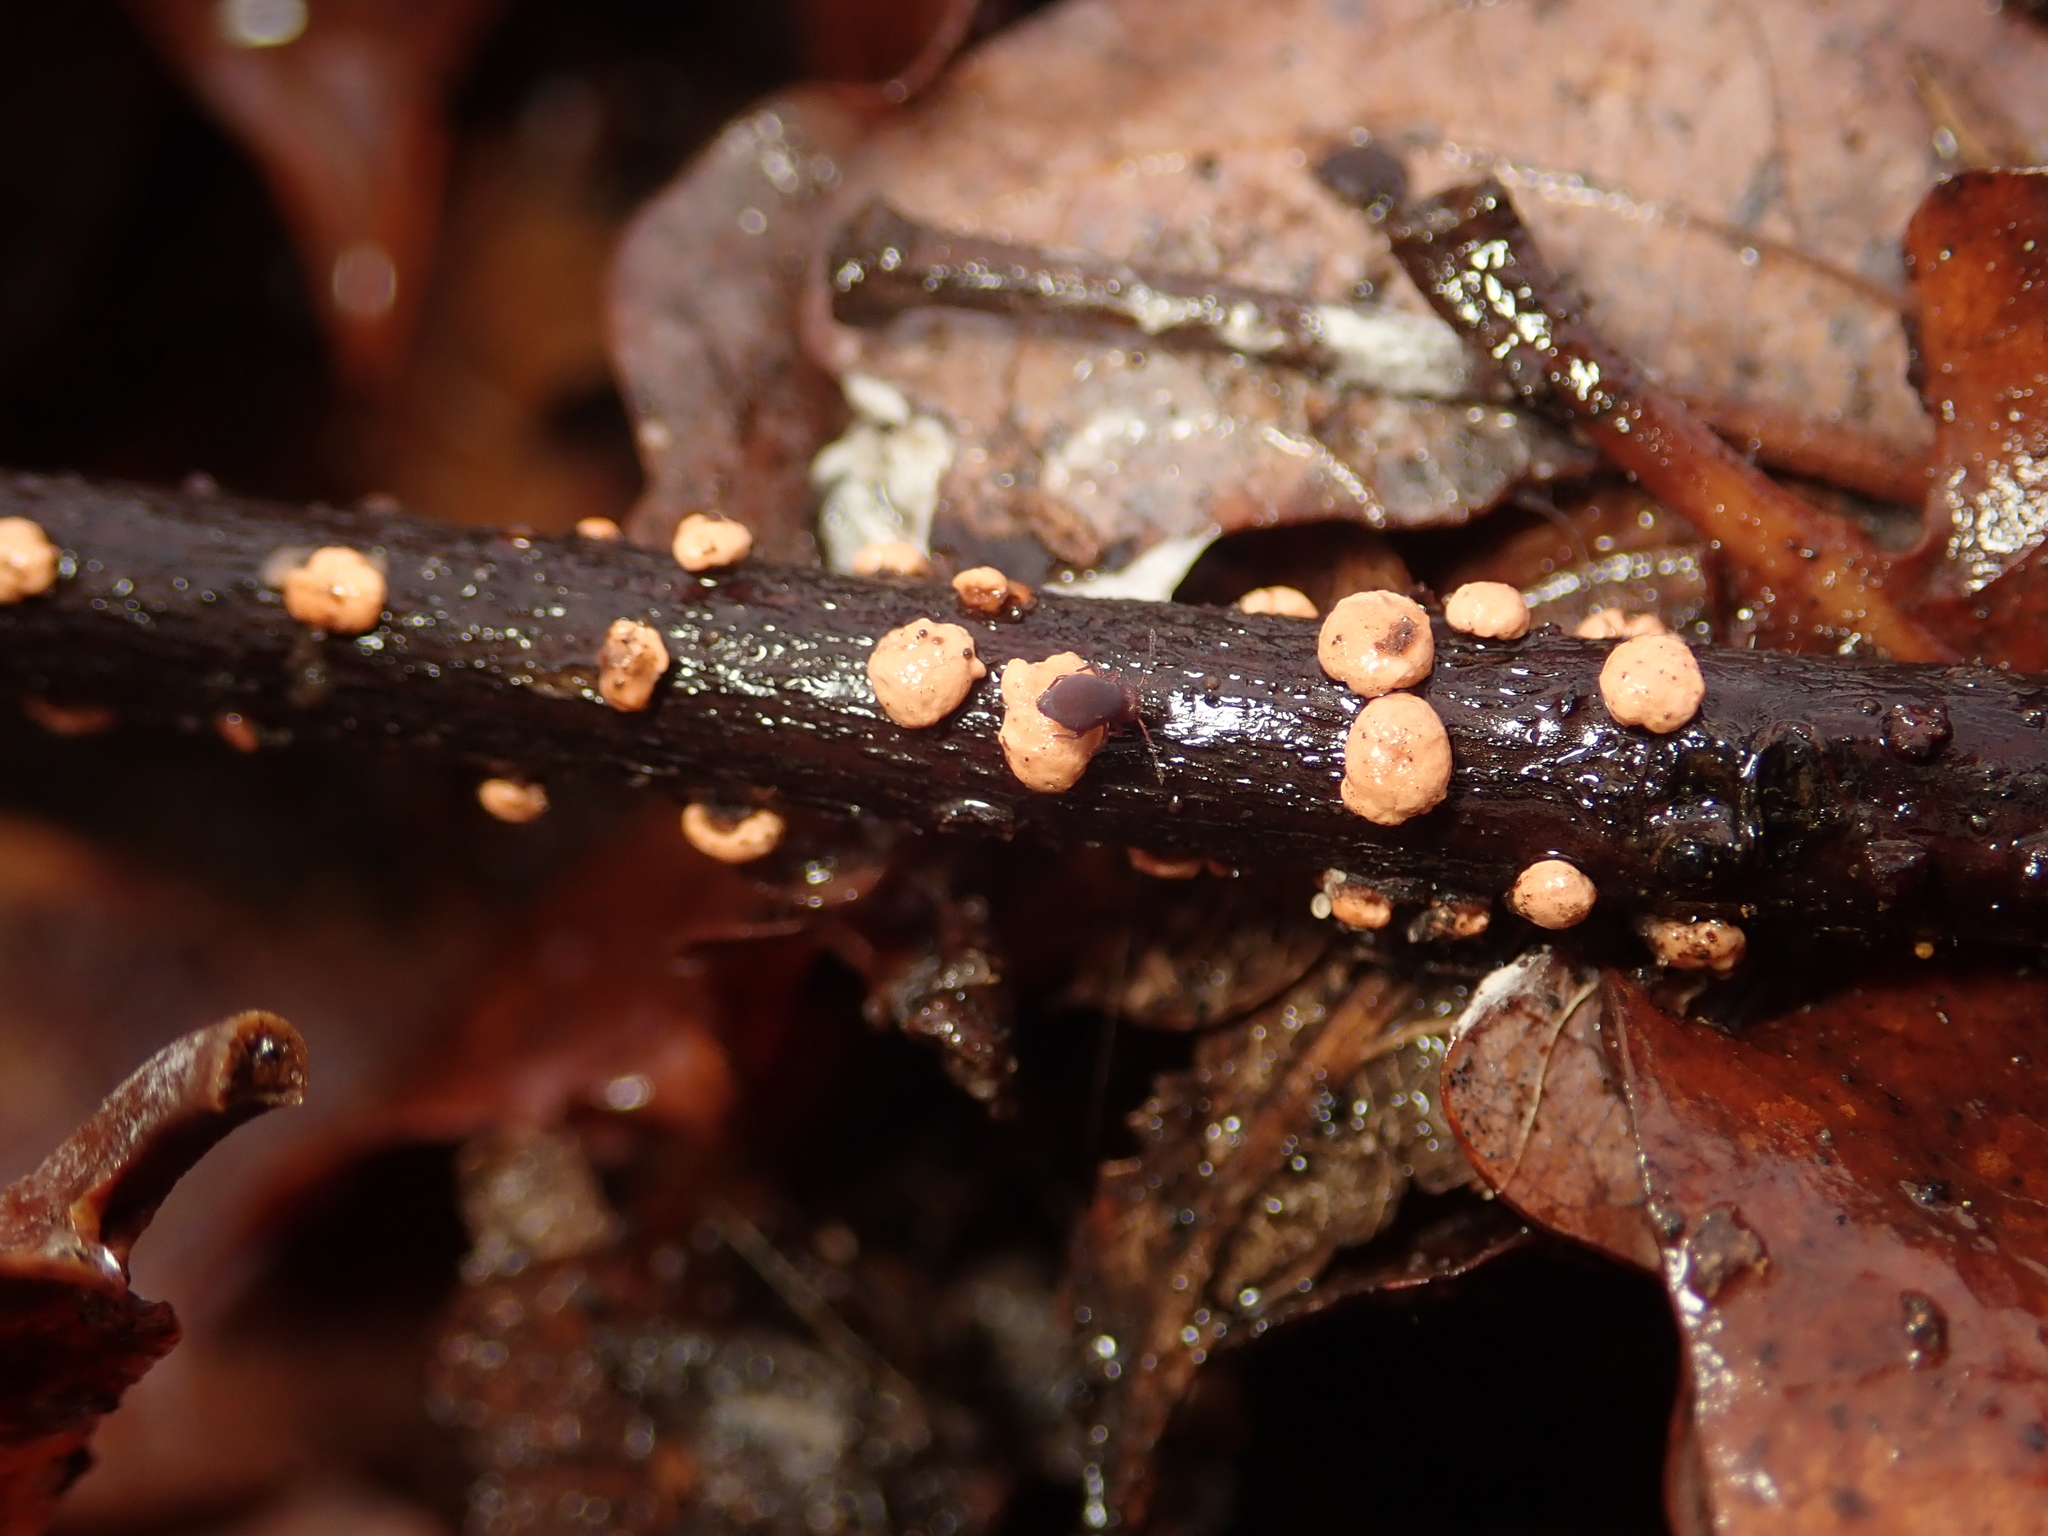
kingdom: Fungi
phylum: Ascomycota
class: Sordariomycetes
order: Hypocreales
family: Nectriaceae
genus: Nectria
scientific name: Nectria cinnabarina
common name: Coral spot
